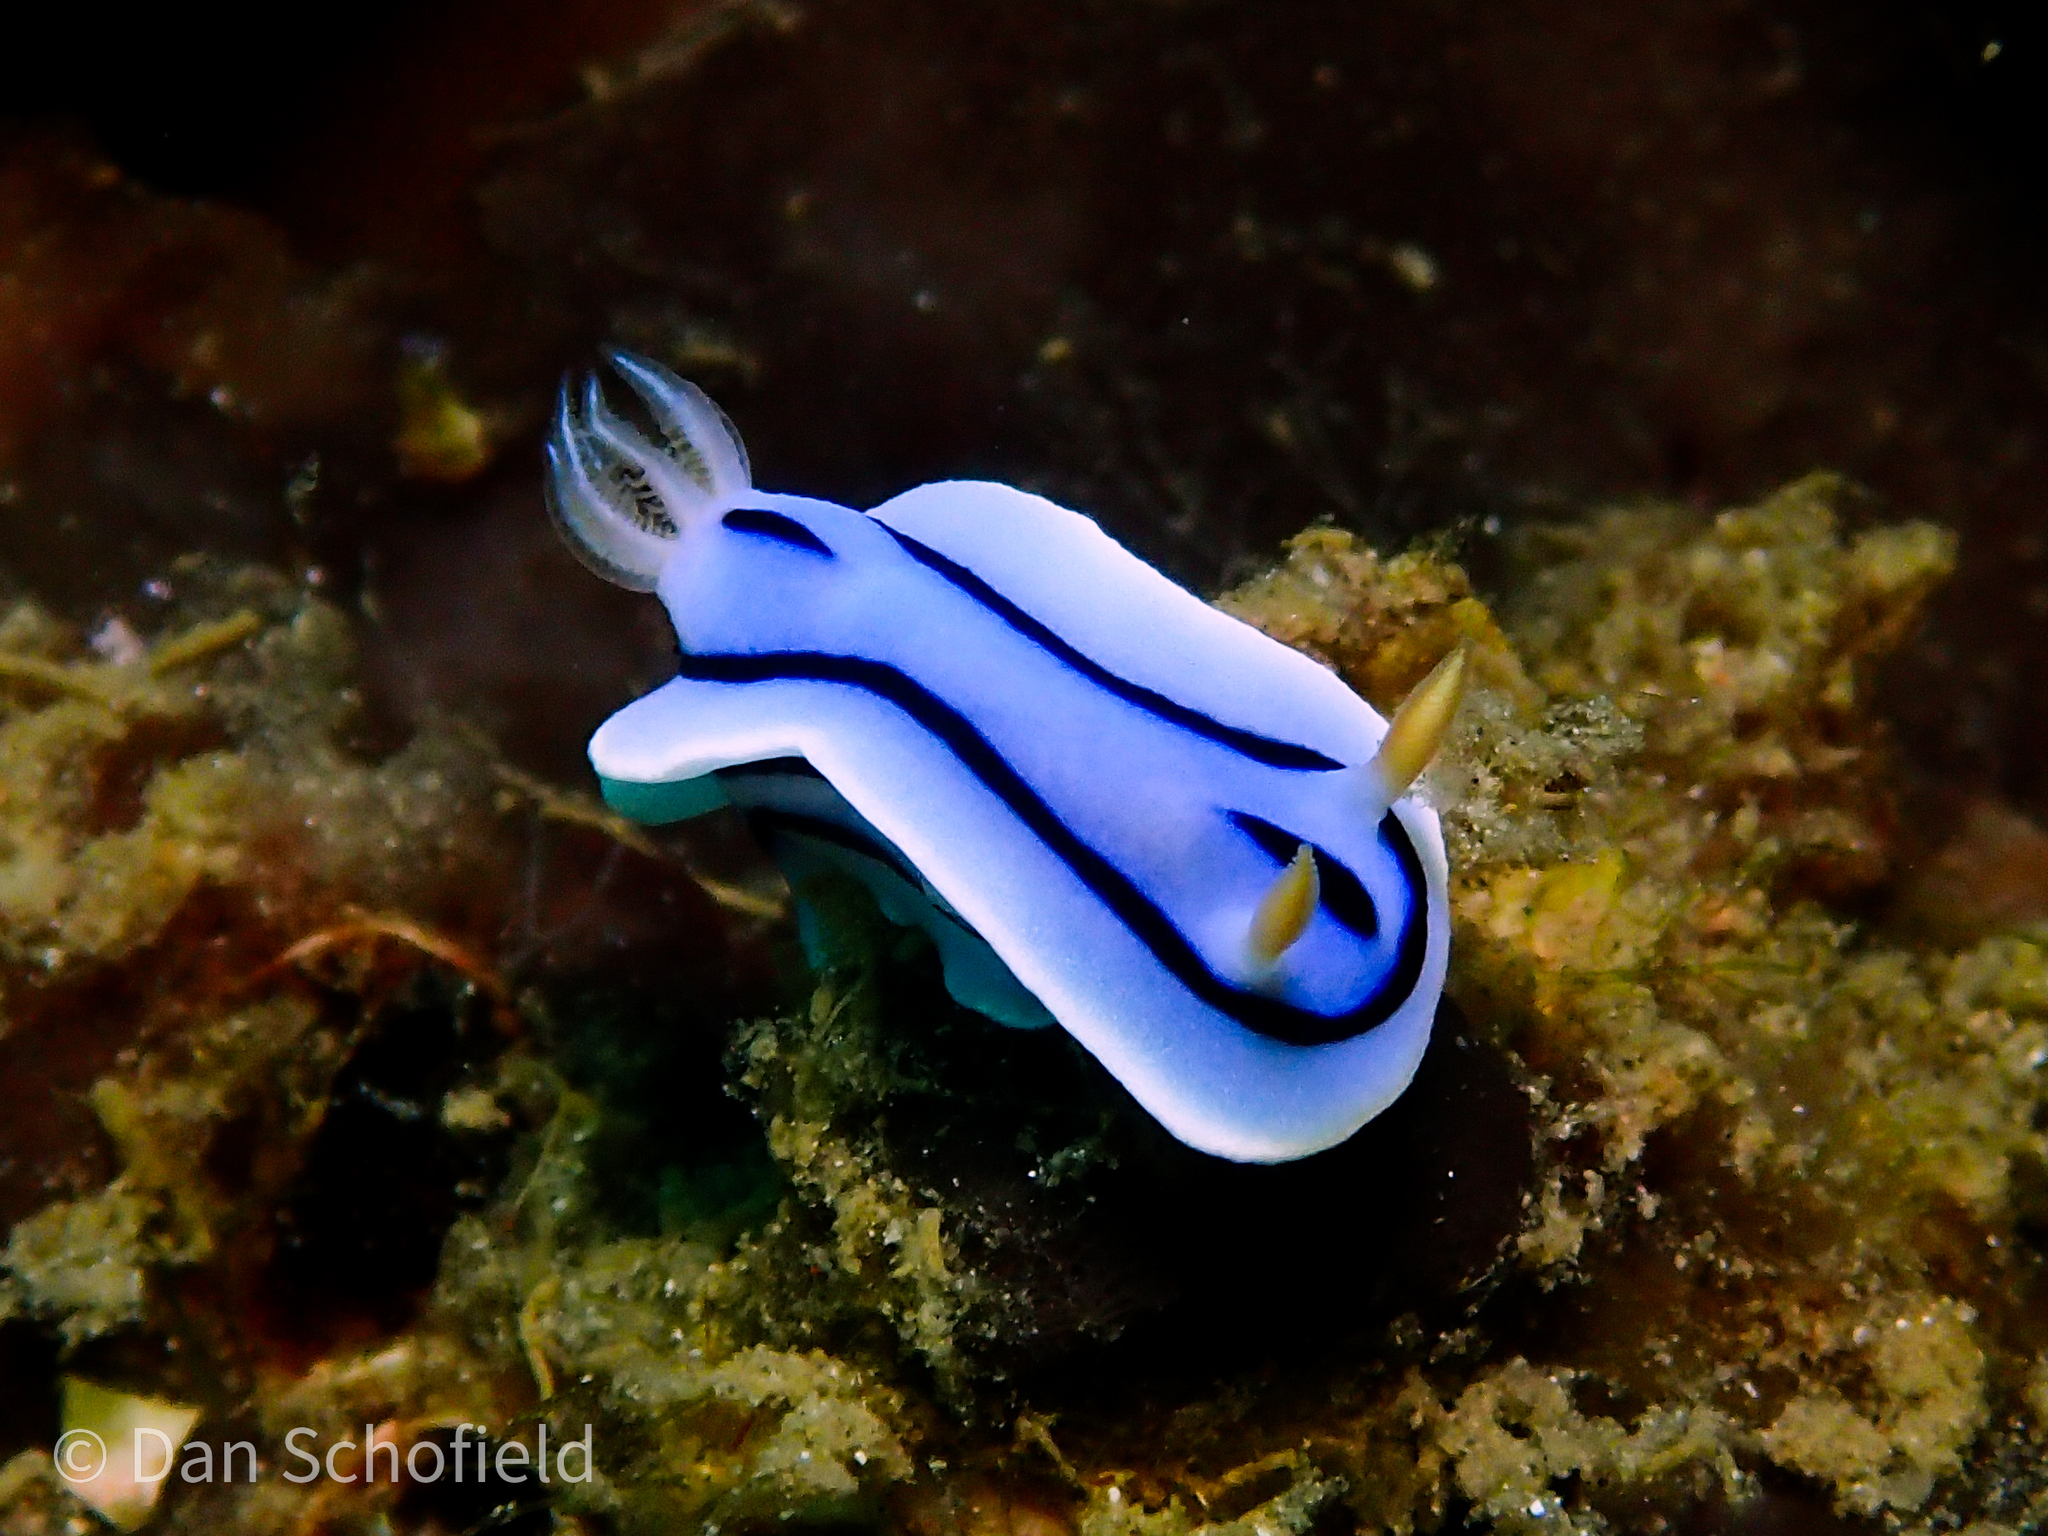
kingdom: Animalia
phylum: Mollusca
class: Gastropoda
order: Nudibranchia
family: Chromodorididae
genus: Chromodoris
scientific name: Chromodoris lochi
